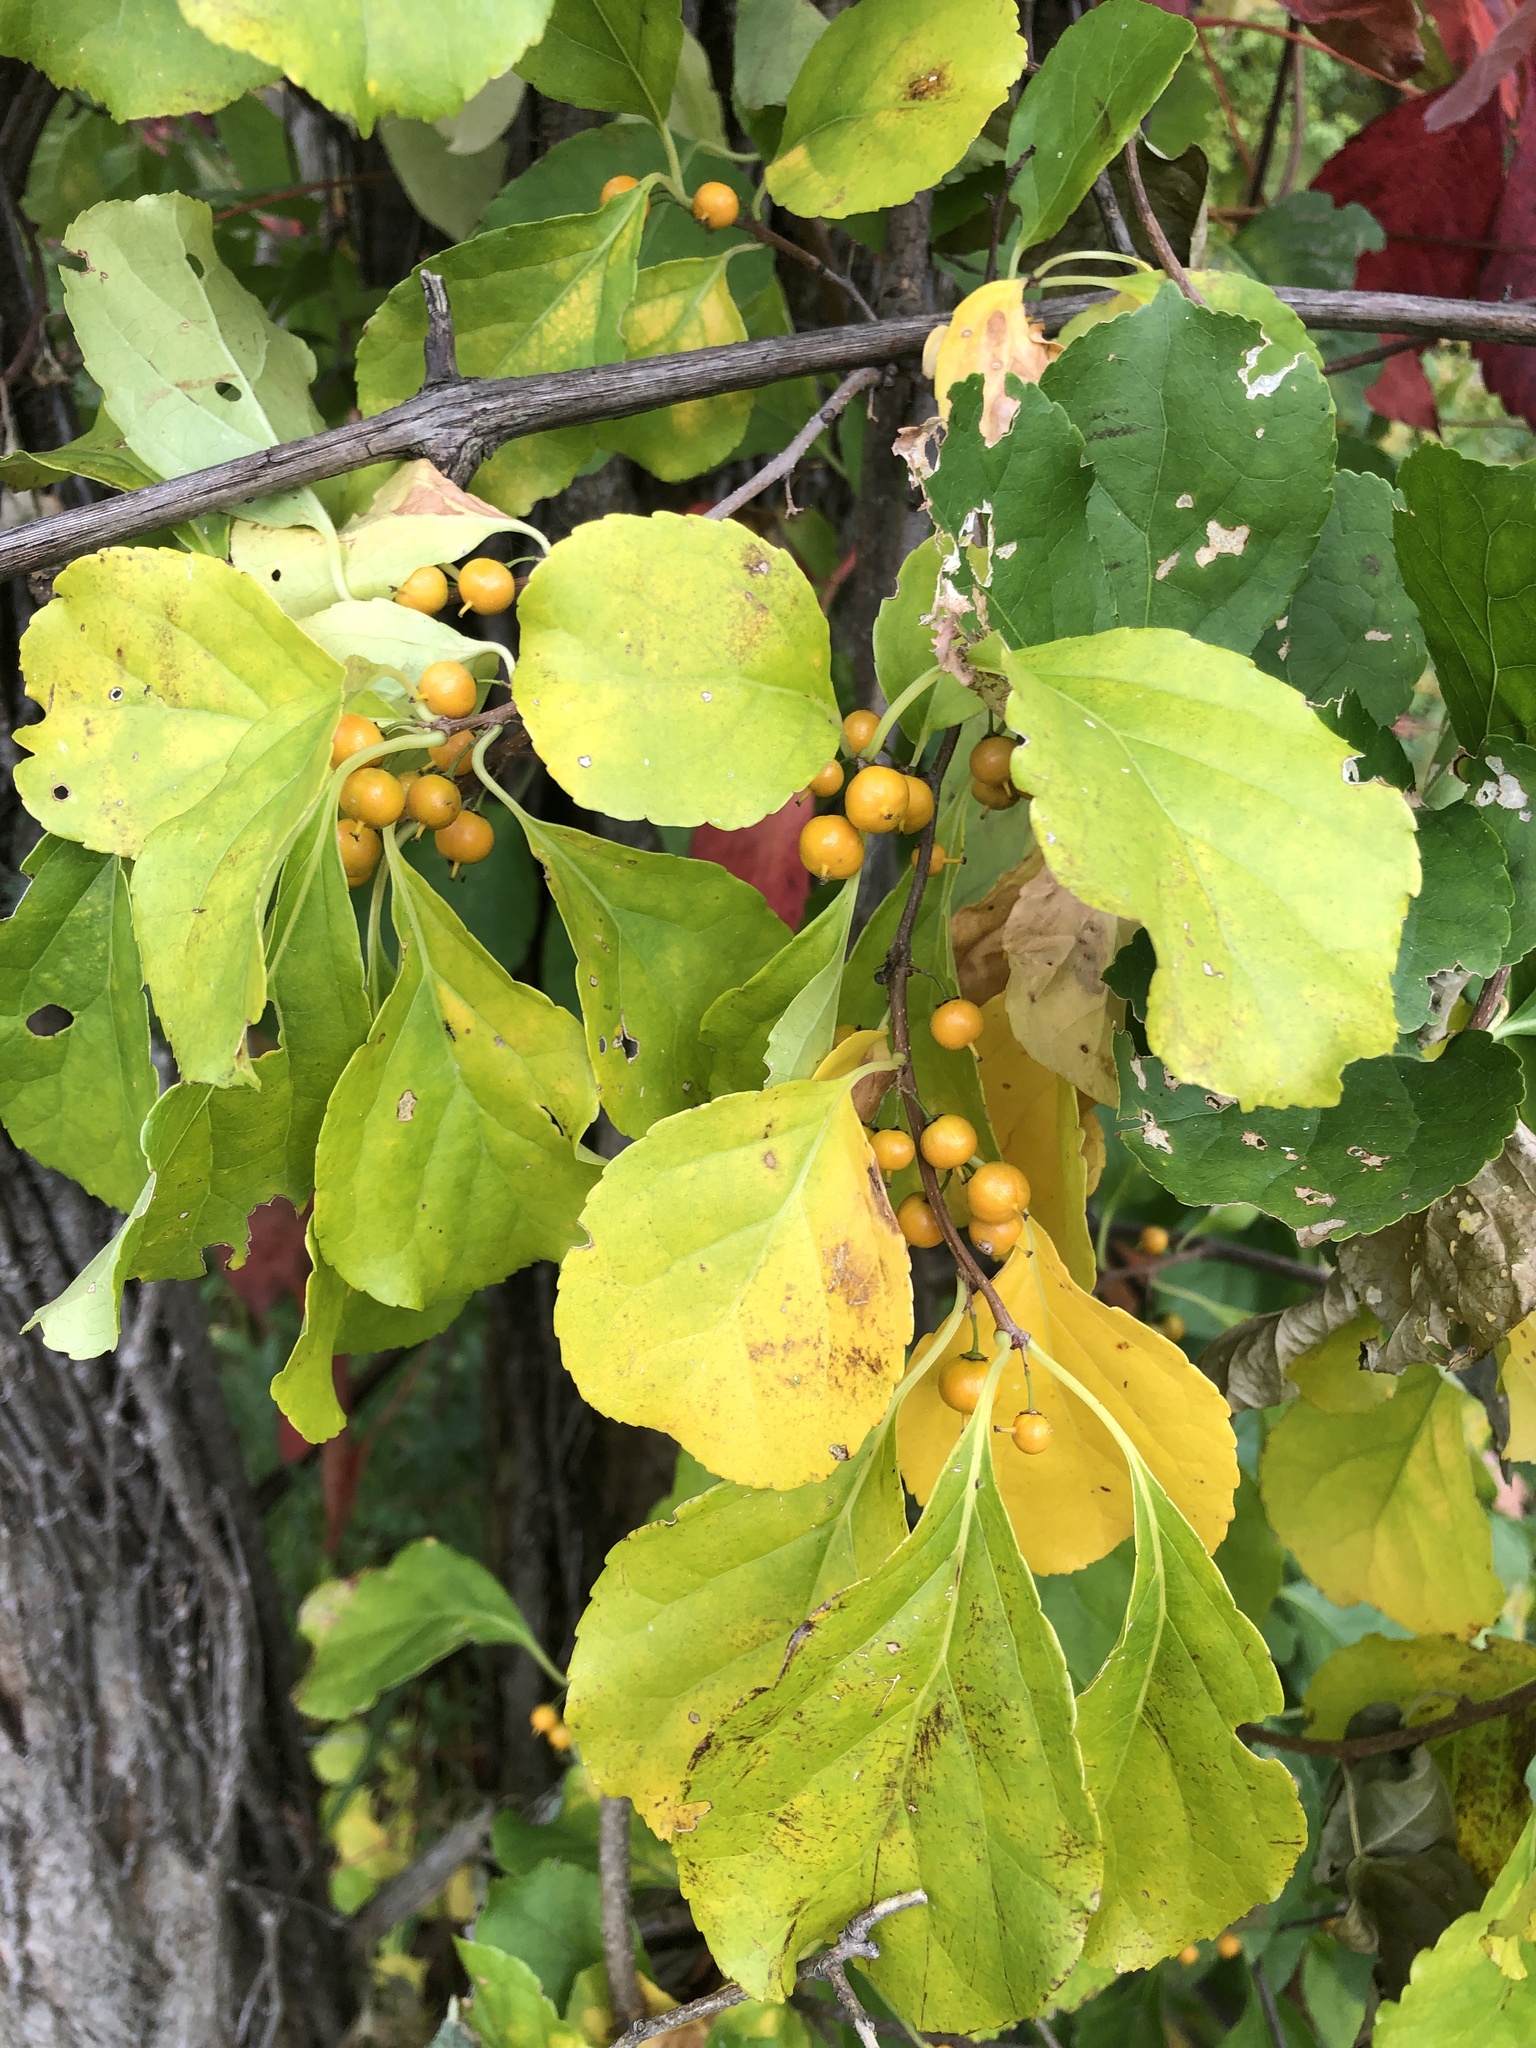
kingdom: Plantae
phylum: Tracheophyta
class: Magnoliopsida
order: Celastrales
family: Celastraceae
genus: Celastrus
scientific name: Celastrus orbiculatus
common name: Oriental bittersweet
